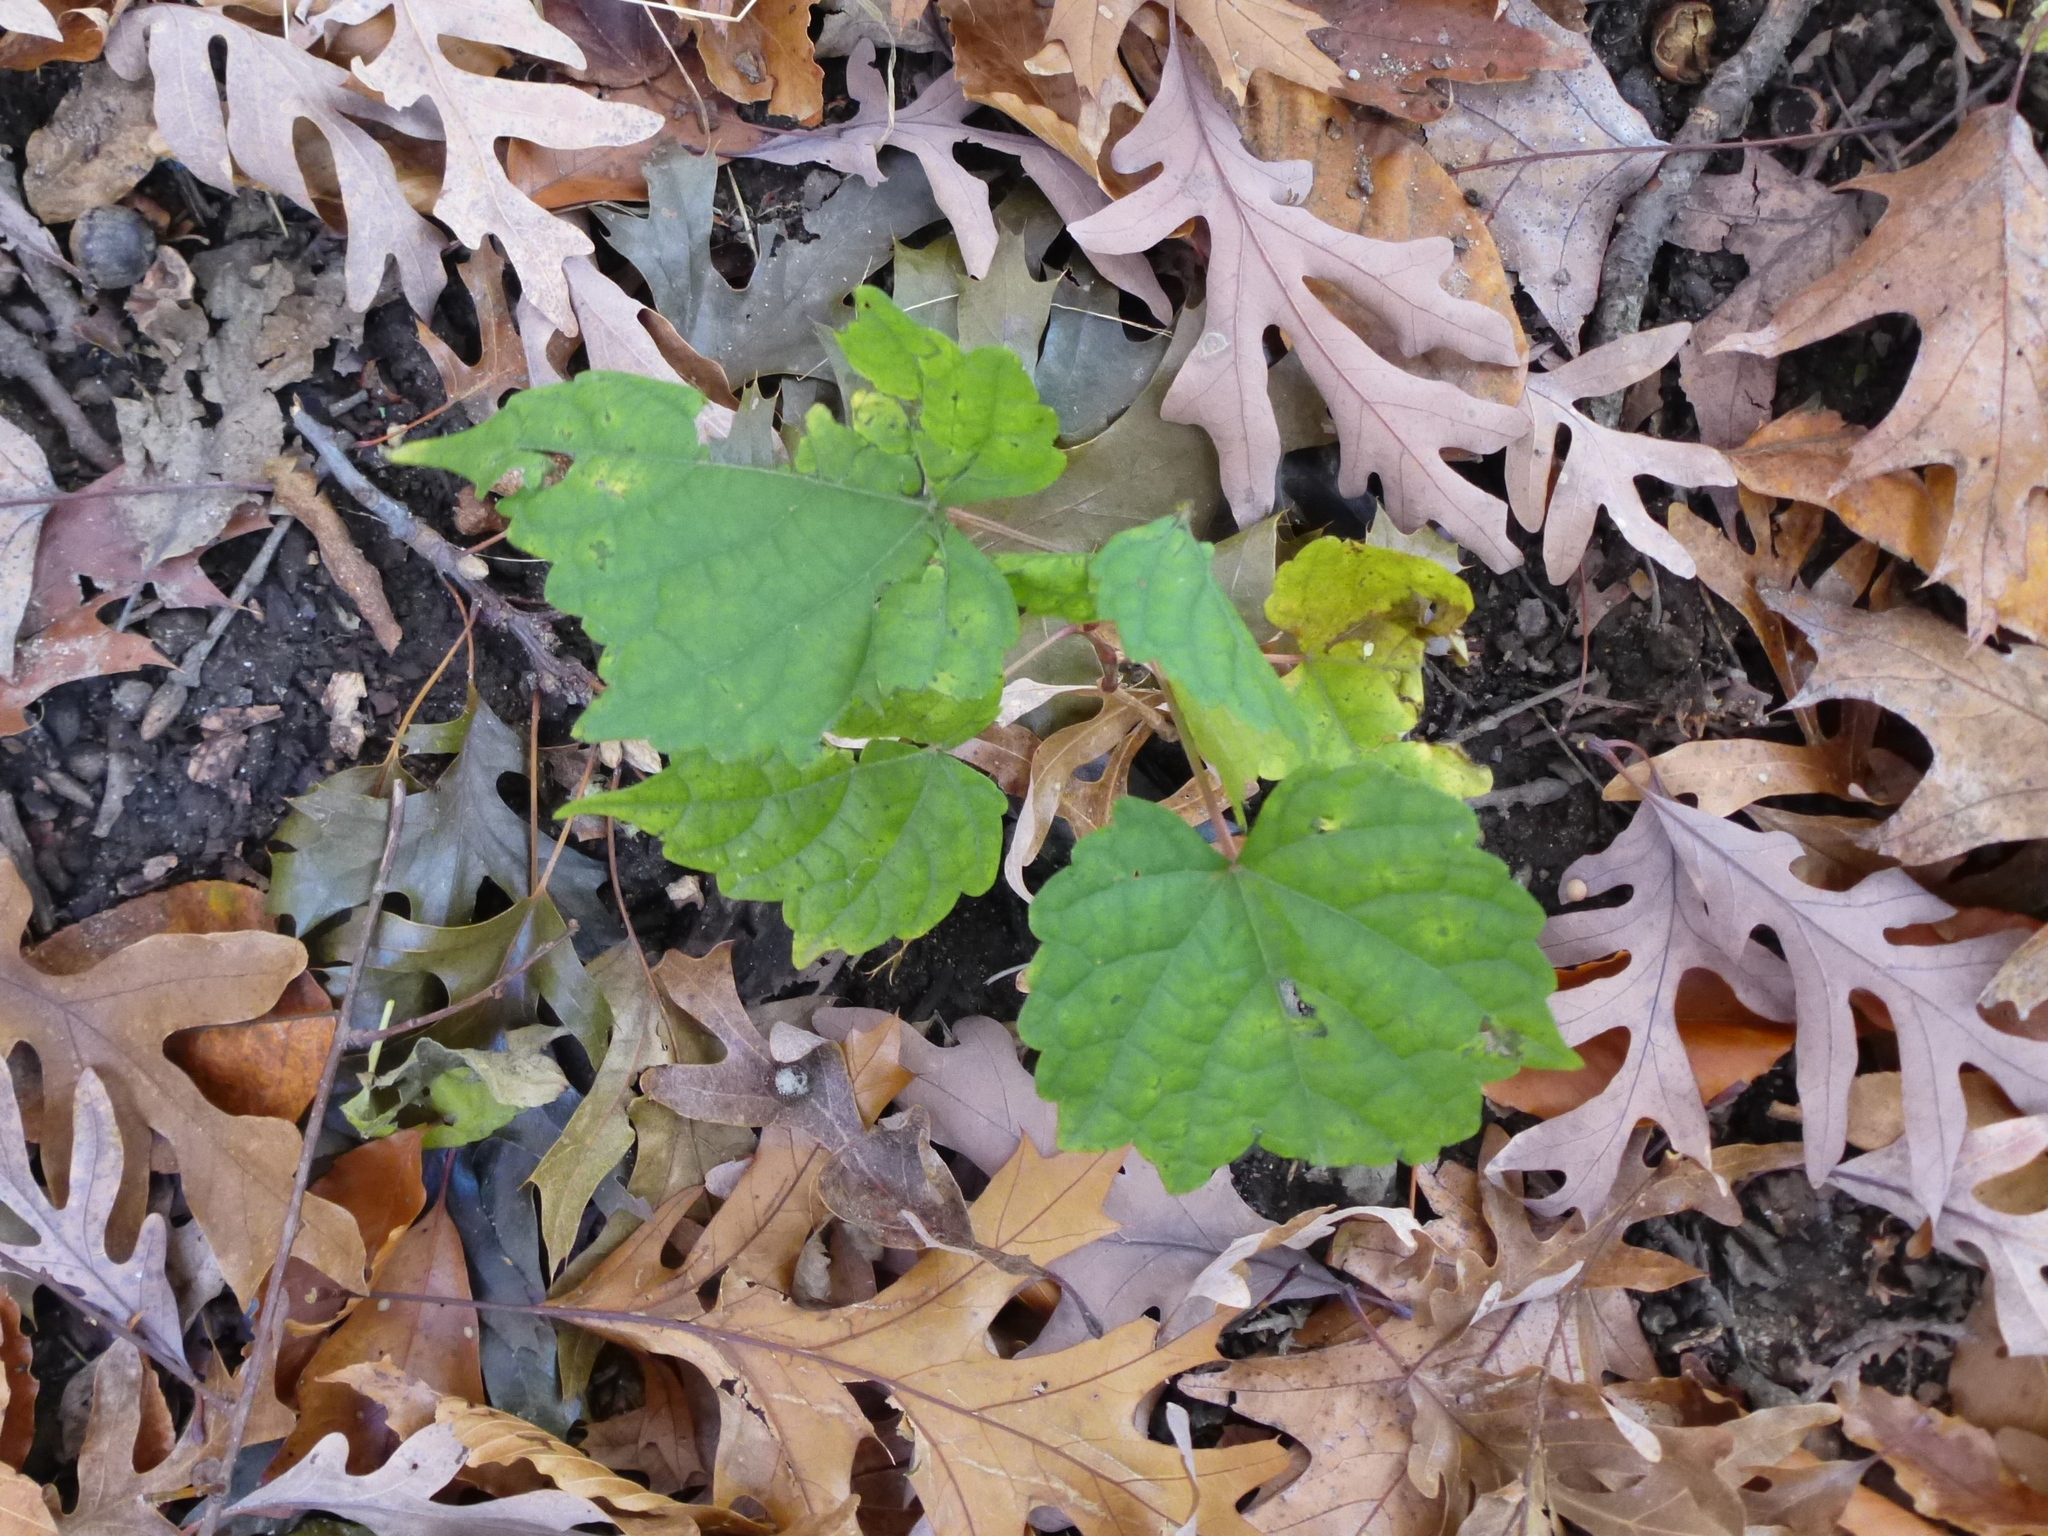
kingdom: Plantae
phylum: Tracheophyta
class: Magnoliopsida
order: Vitales
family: Vitaceae
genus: Ampelopsis
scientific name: Ampelopsis glandulosa
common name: Amur peppervine
